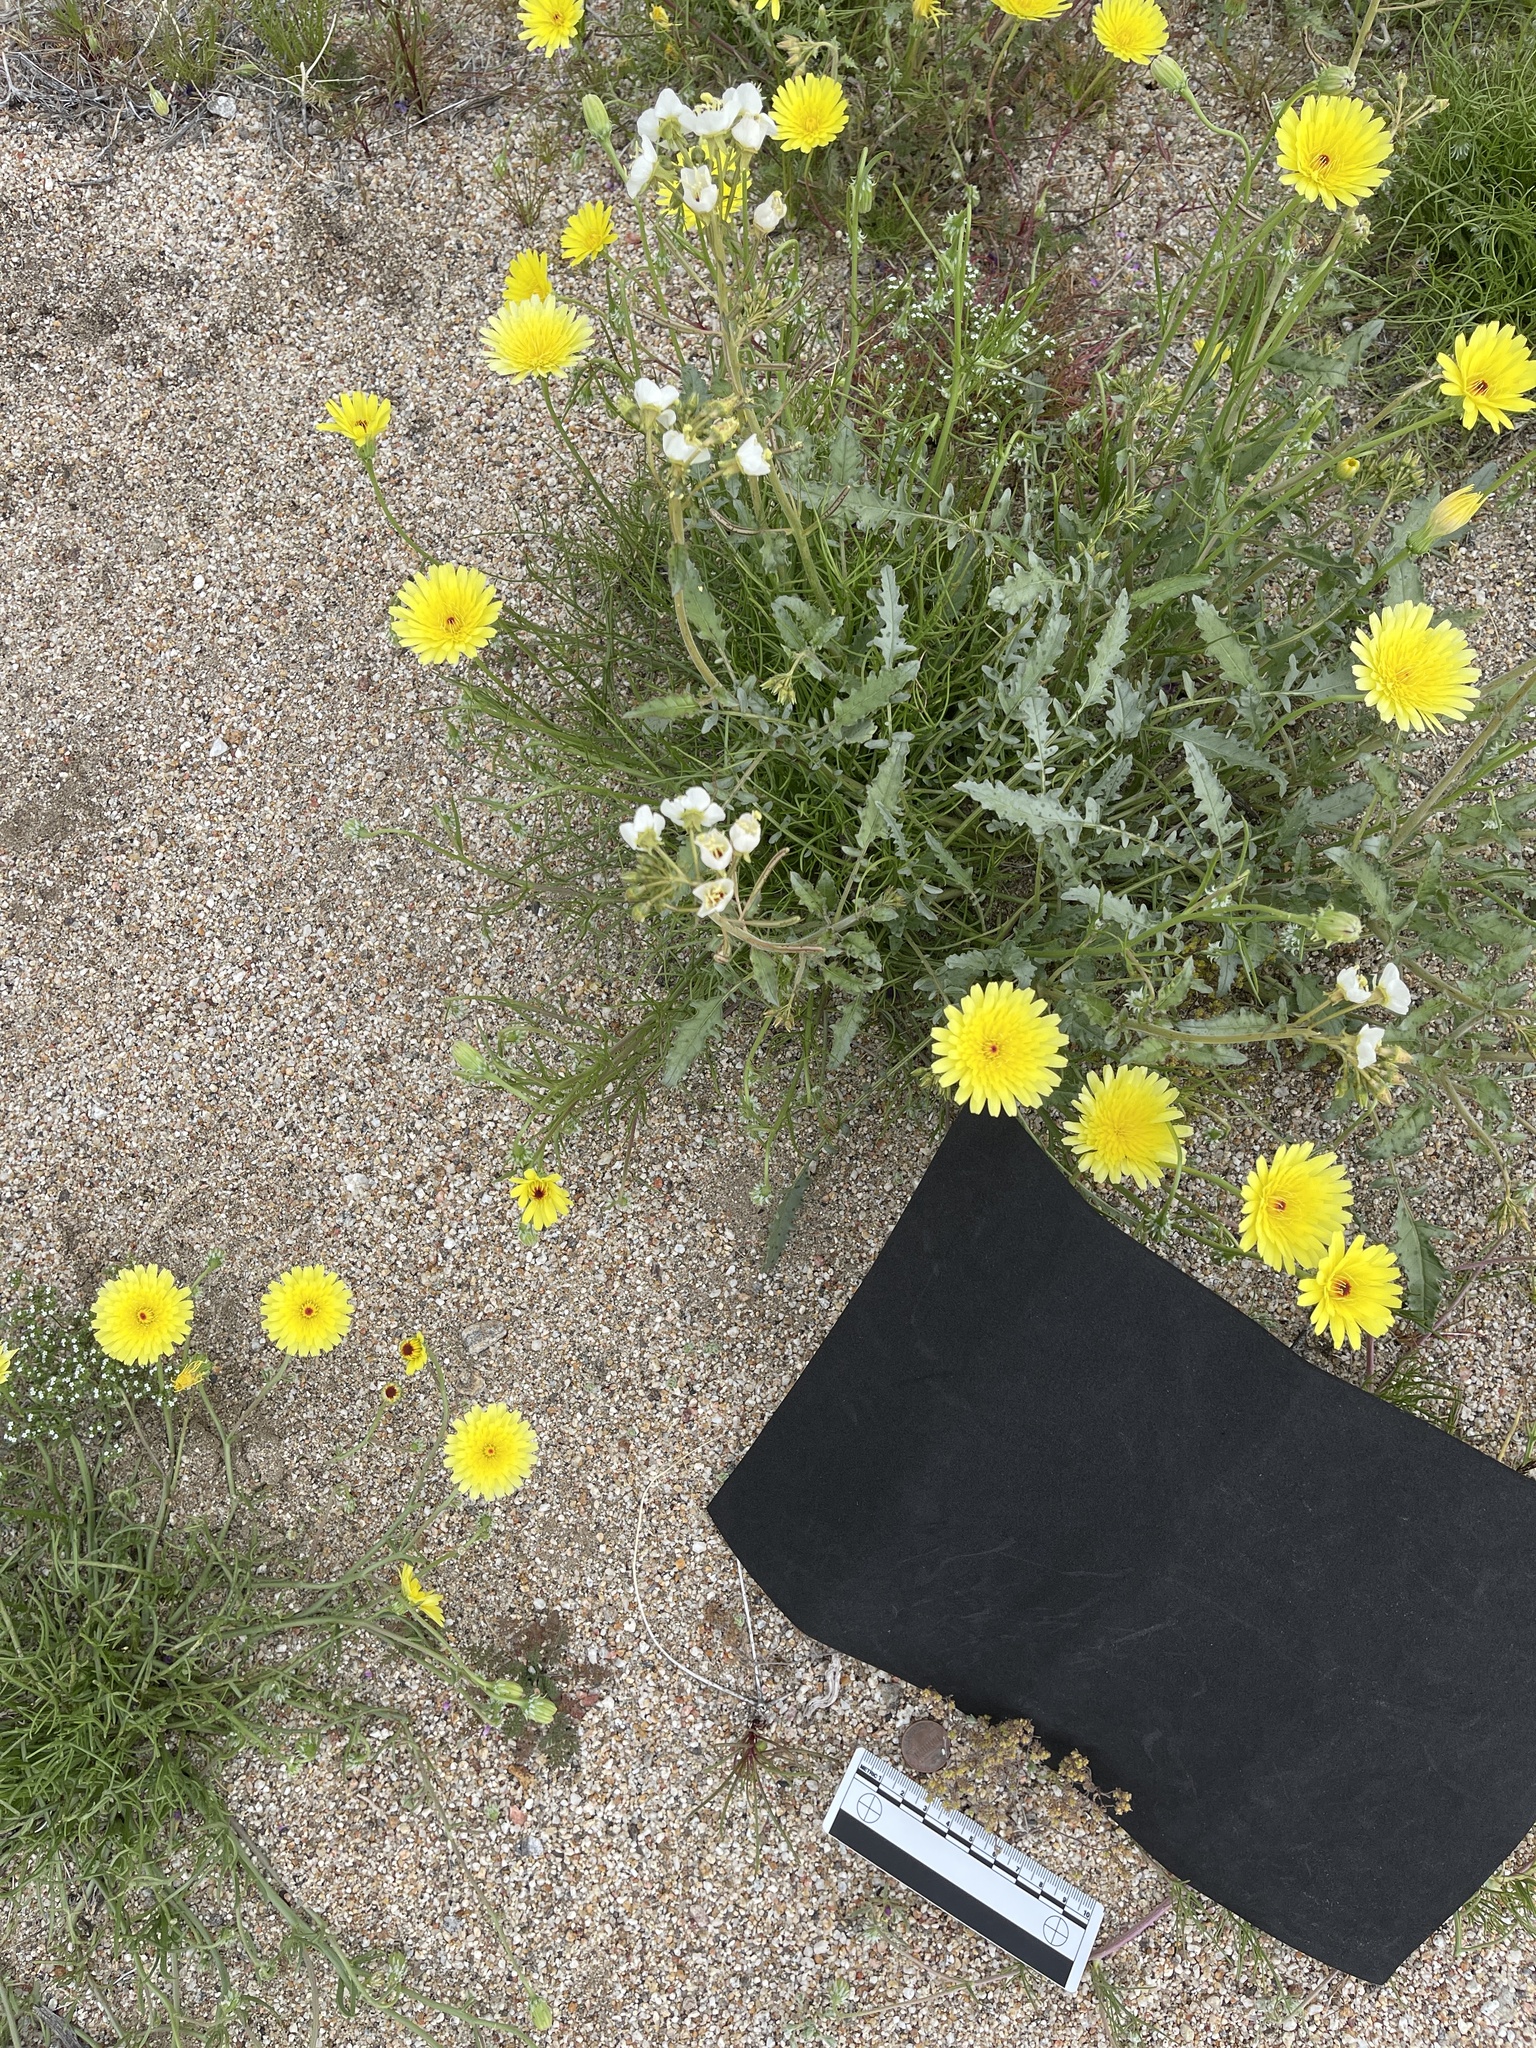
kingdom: Plantae
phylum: Tracheophyta
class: Magnoliopsida
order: Boraginales
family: Boraginaceae
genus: Eremocarya
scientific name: Eremocarya micrantha
